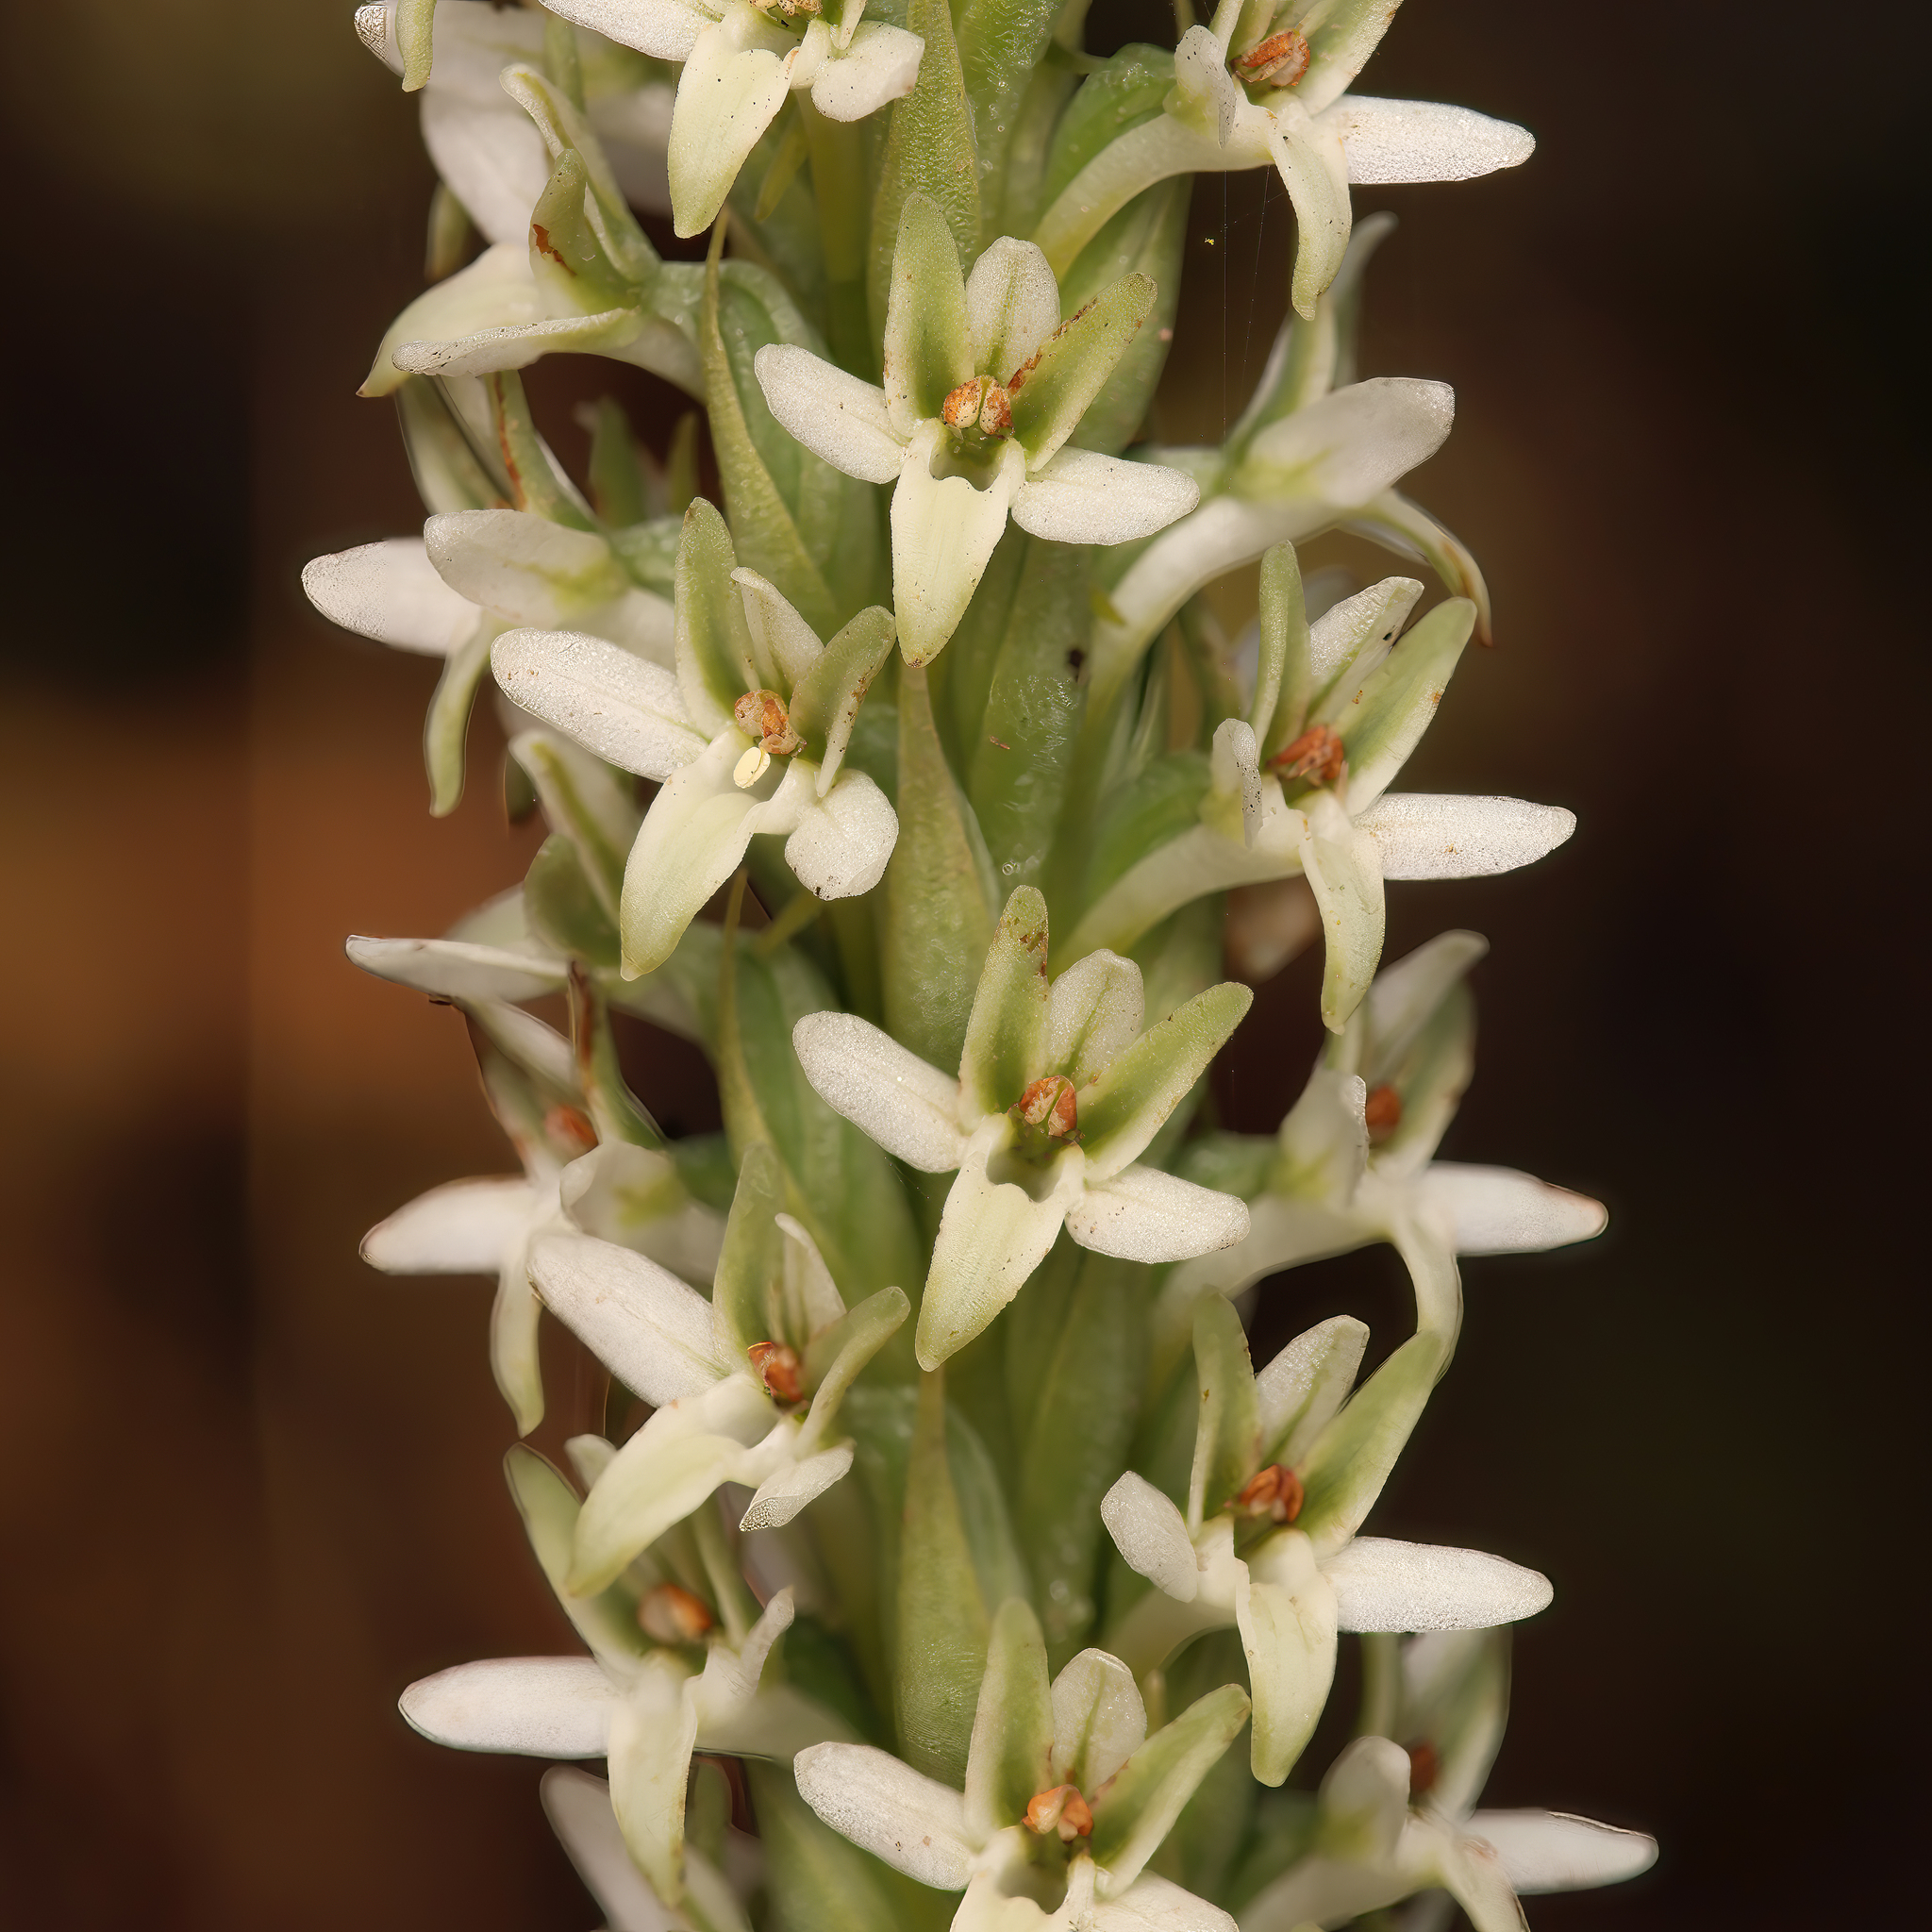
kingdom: Plantae
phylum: Tracheophyta
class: Liliopsida
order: Asparagales
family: Orchidaceae
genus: Platanthera
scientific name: Platanthera elegans
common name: Coast piperia
